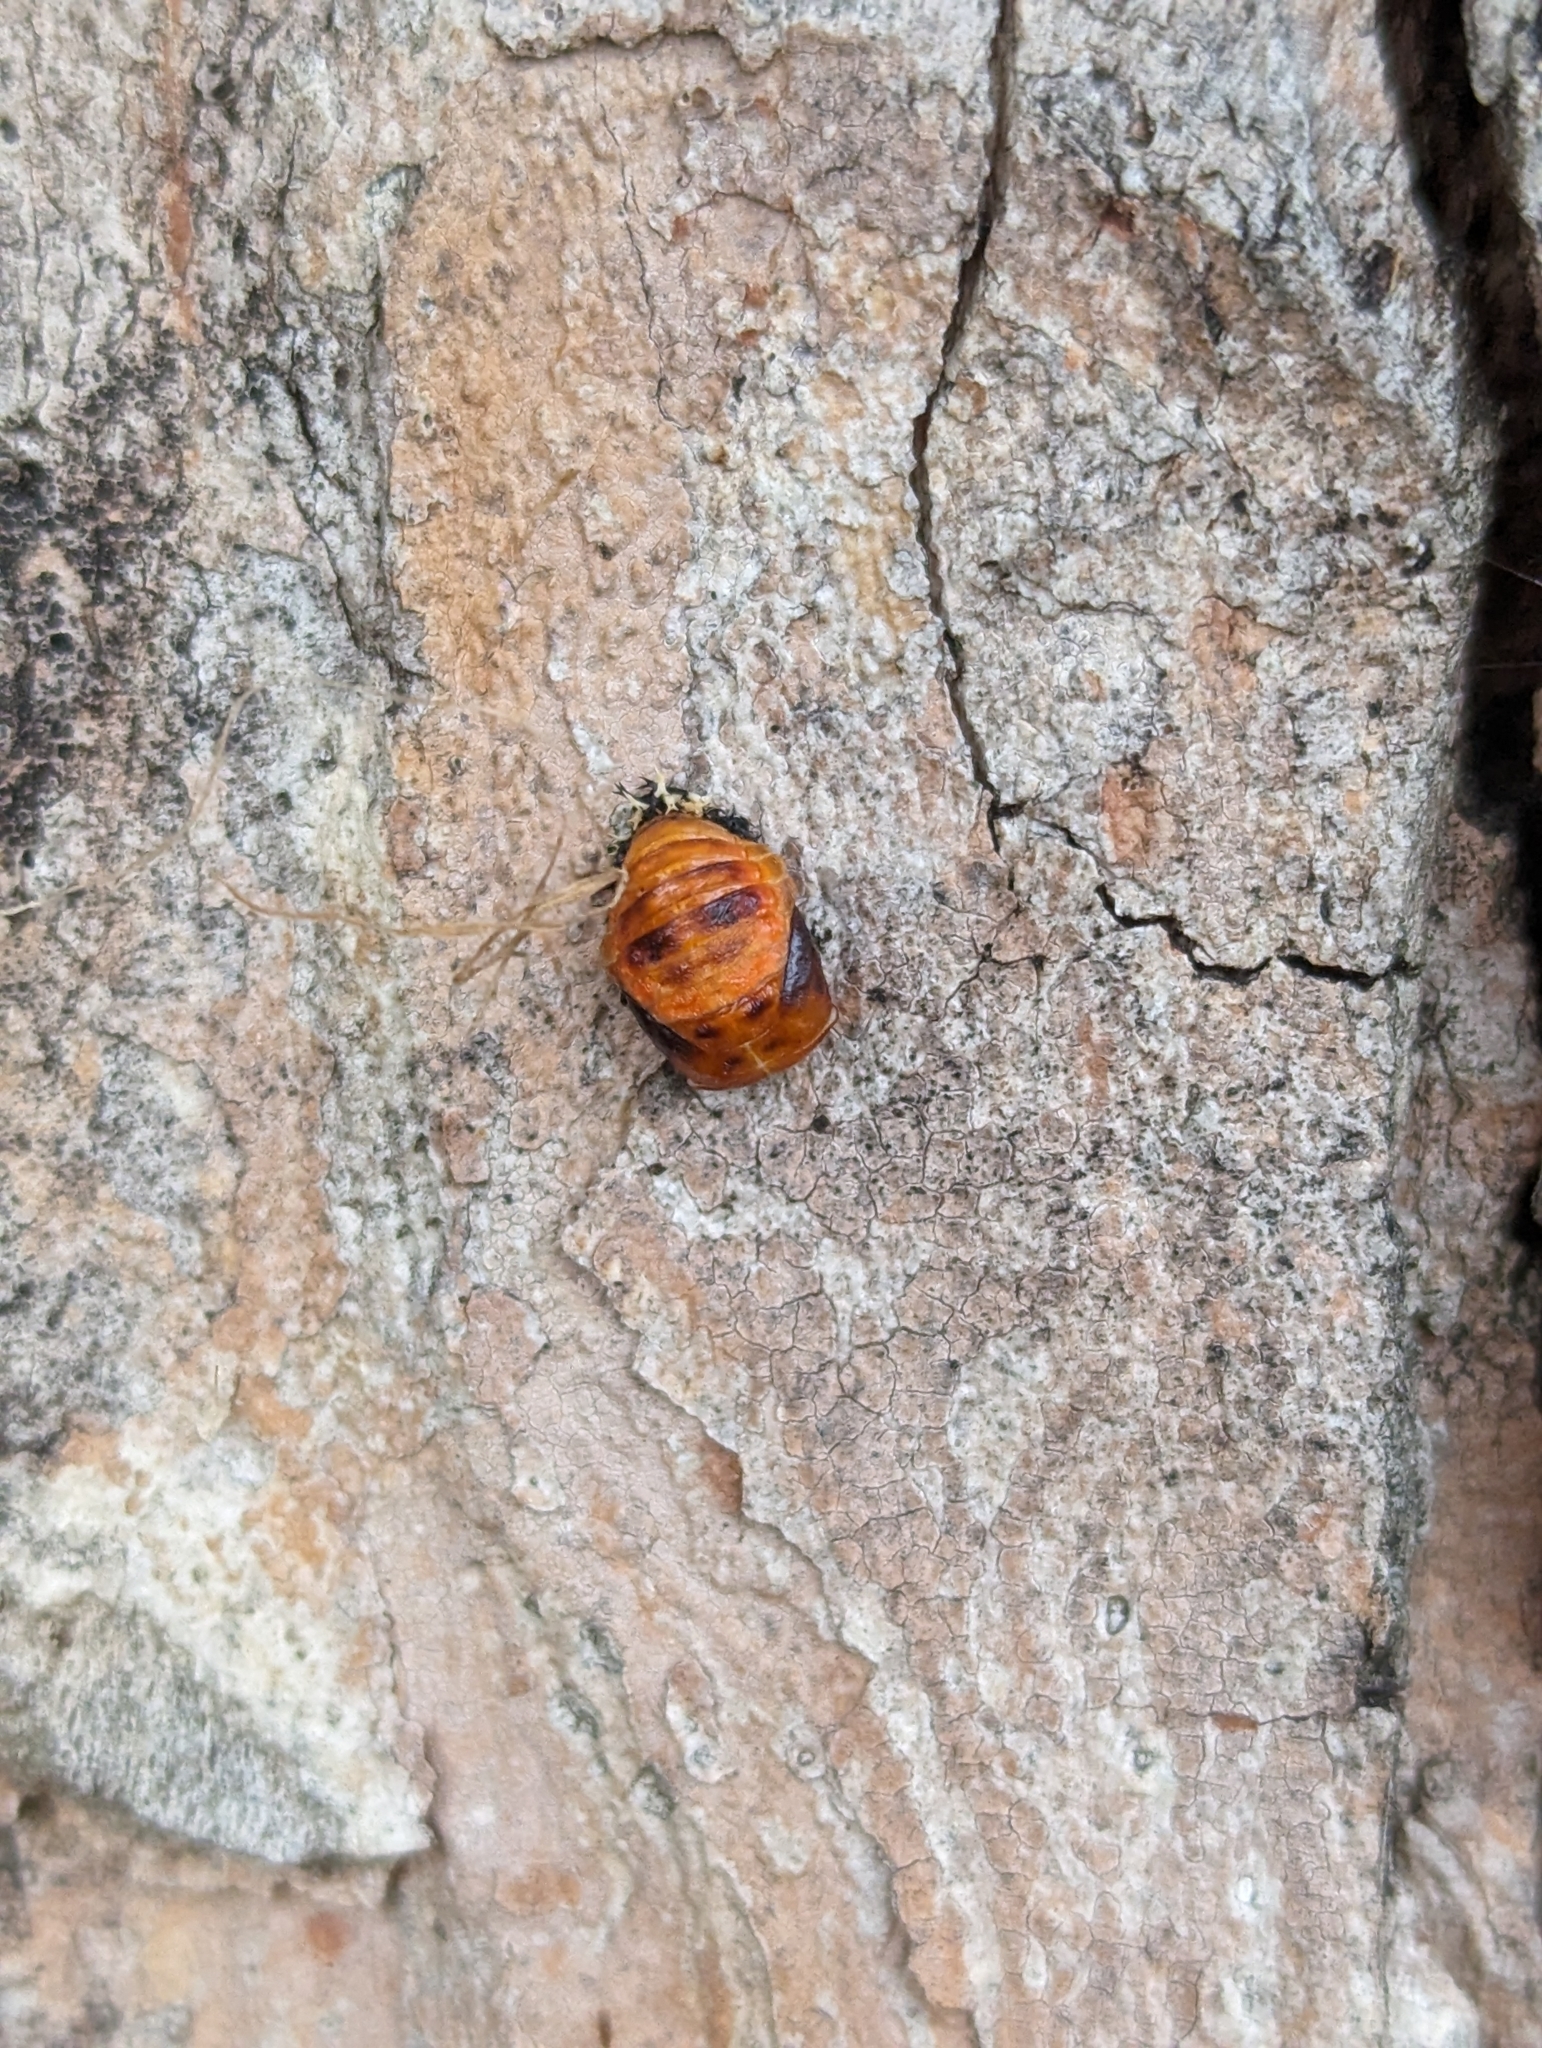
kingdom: Animalia
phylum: Arthropoda
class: Insecta
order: Coleoptera
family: Coccinellidae
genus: Harmonia
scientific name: Harmonia axyridis
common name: Harlequin ladybird
